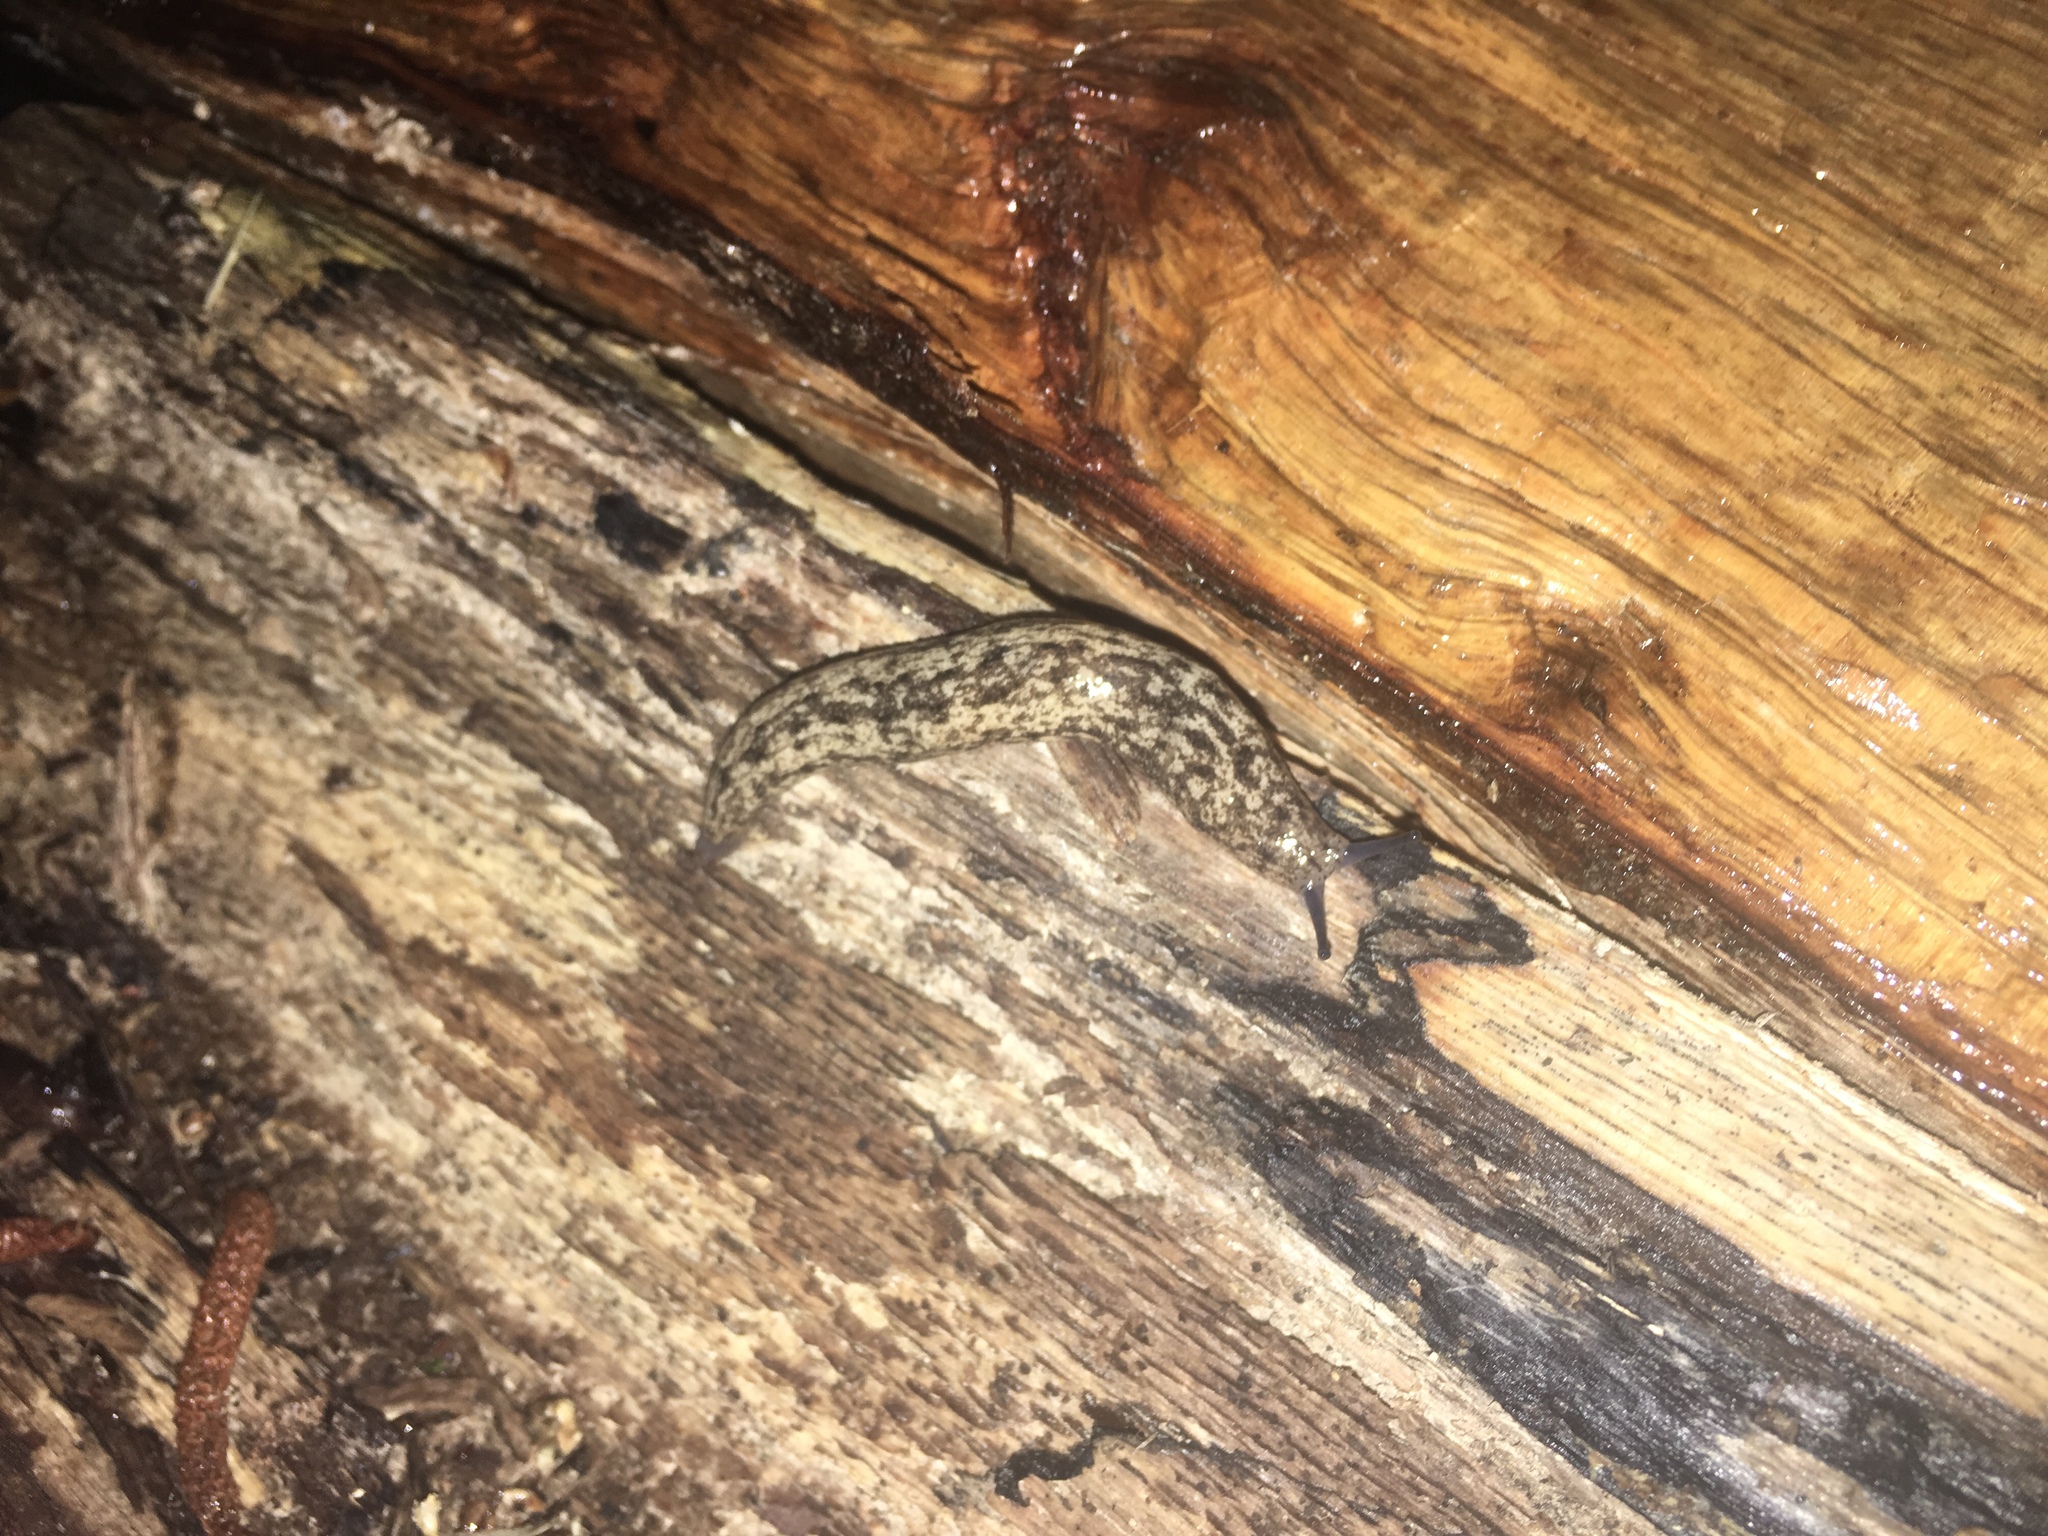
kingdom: Animalia
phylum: Mollusca
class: Gastropoda
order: Stylommatophora
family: Philomycidae
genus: Philomycus
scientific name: Philomycus carolinianus
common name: Carolina mantleslug
